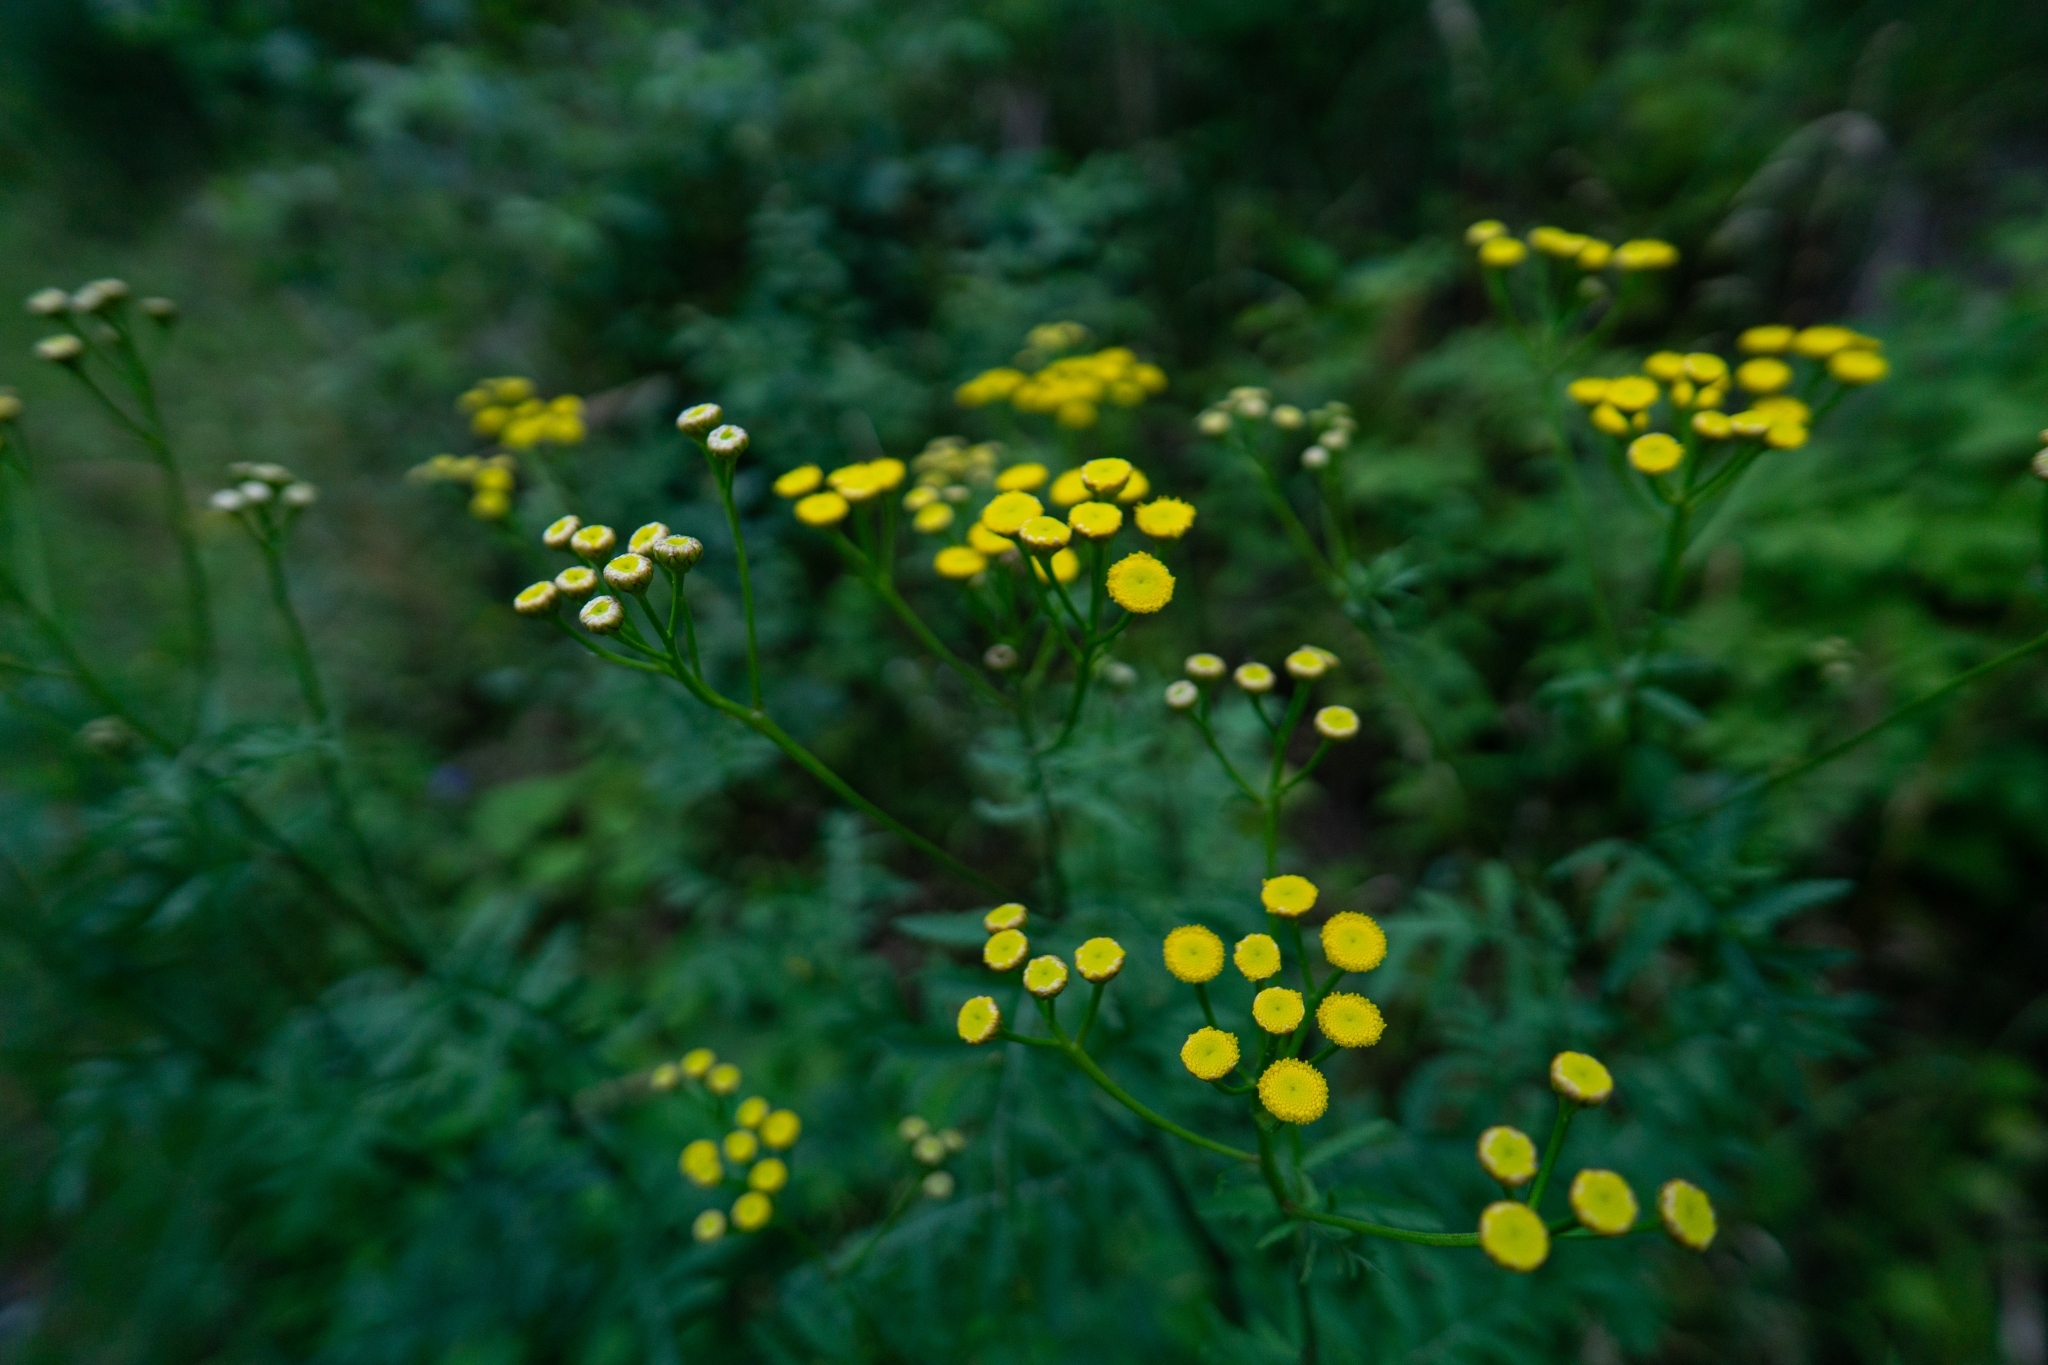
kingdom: Plantae
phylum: Tracheophyta
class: Magnoliopsida
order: Asterales
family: Asteraceae
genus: Tanacetum
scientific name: Tanacetum vulgare
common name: Common tansy
